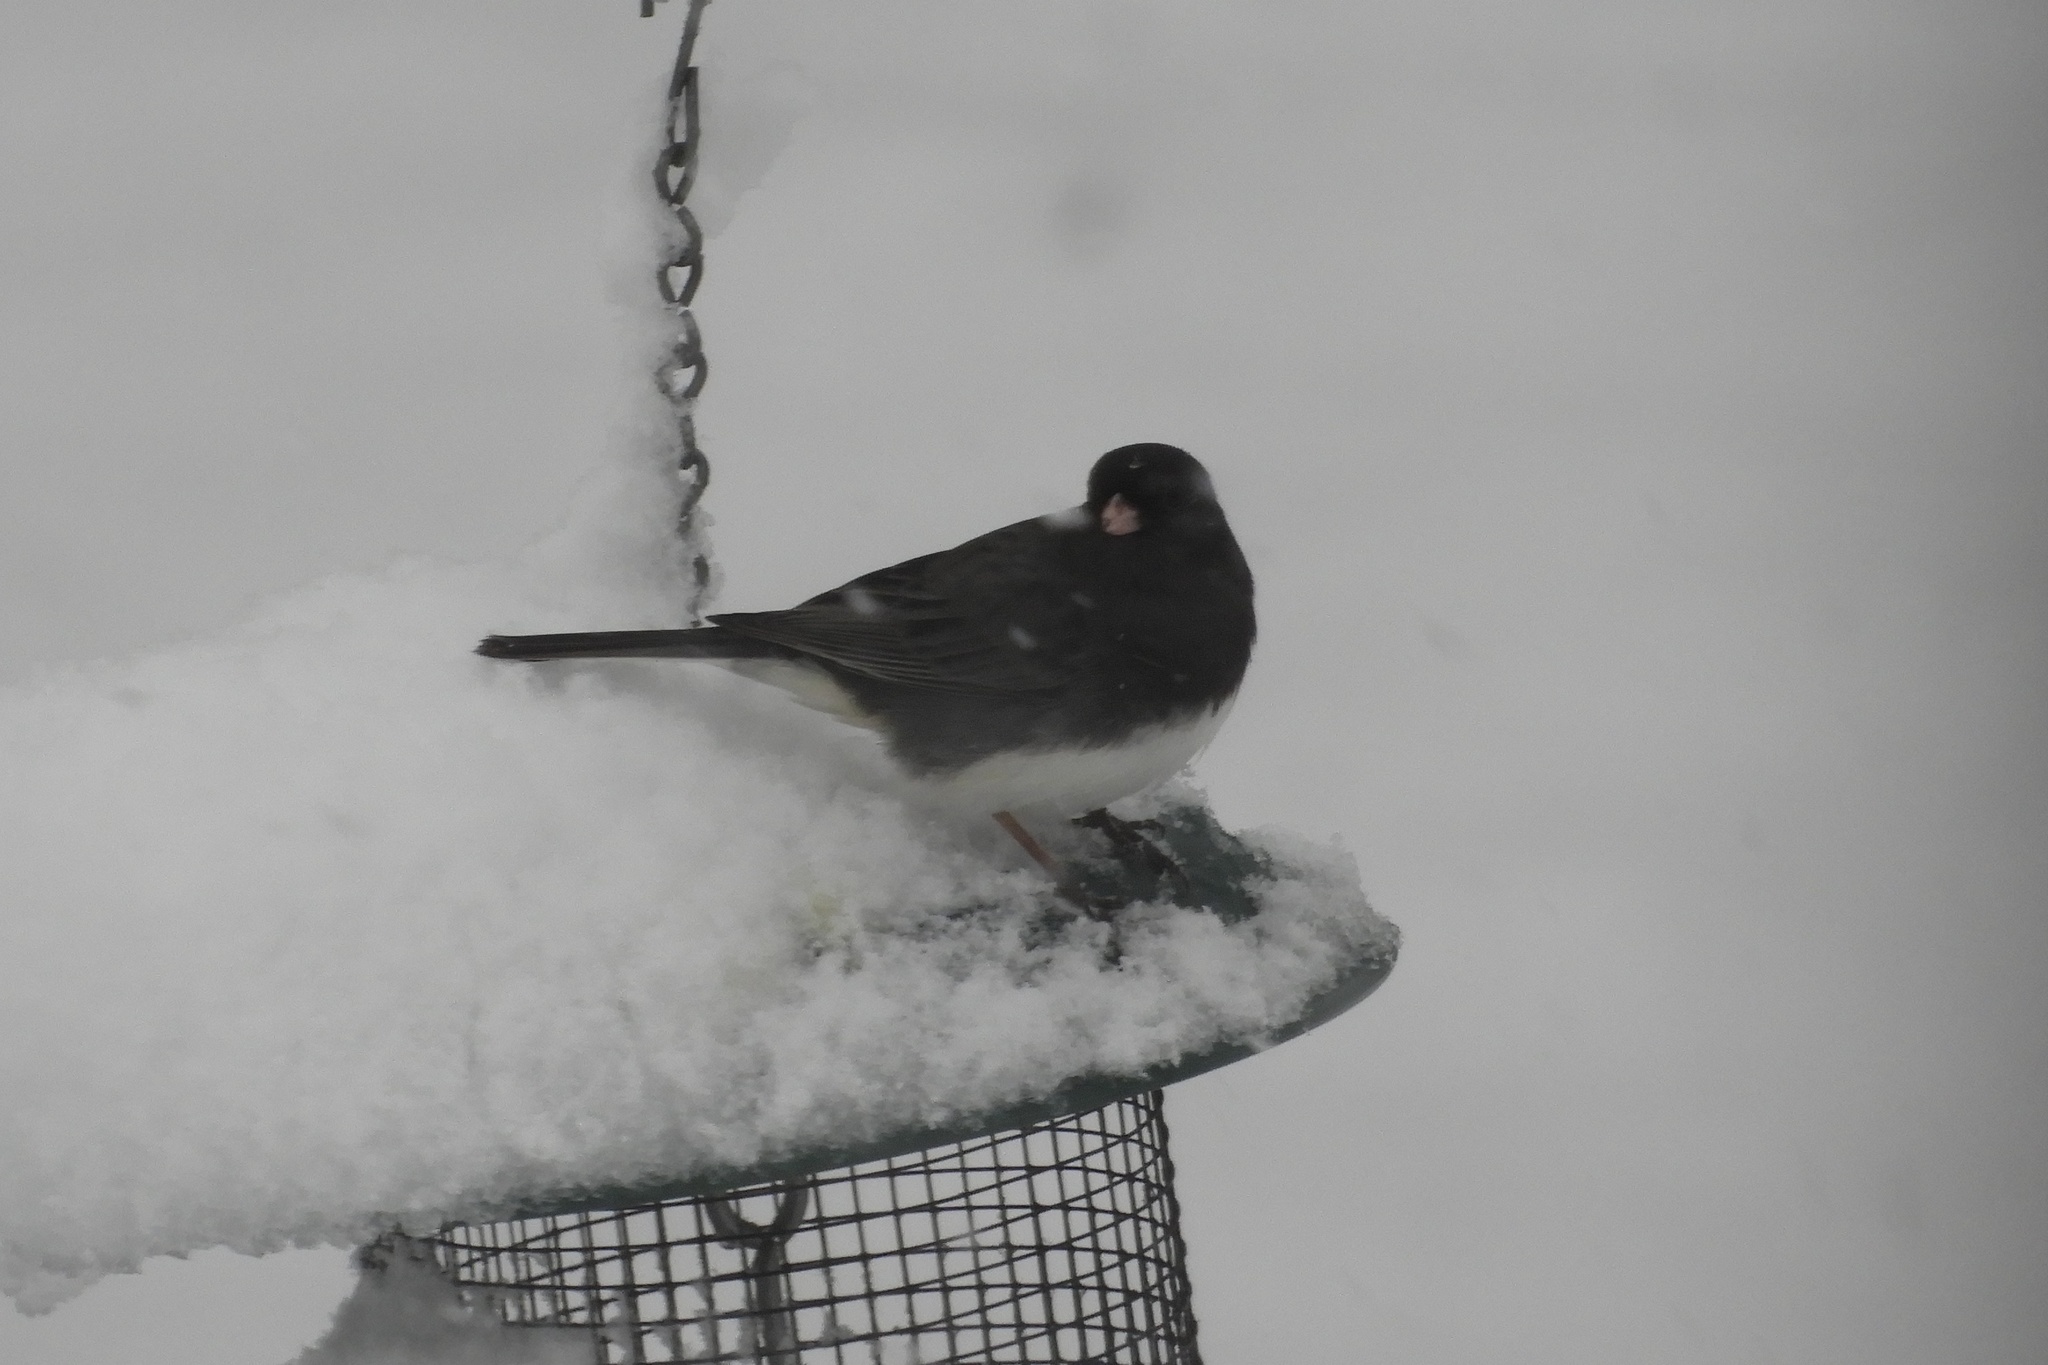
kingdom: Animalia
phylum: Chordata
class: Aves
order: Passeriformes
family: Passerellidae
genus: Junco
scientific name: Junco hyemalis
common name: Dark-eyed junco
